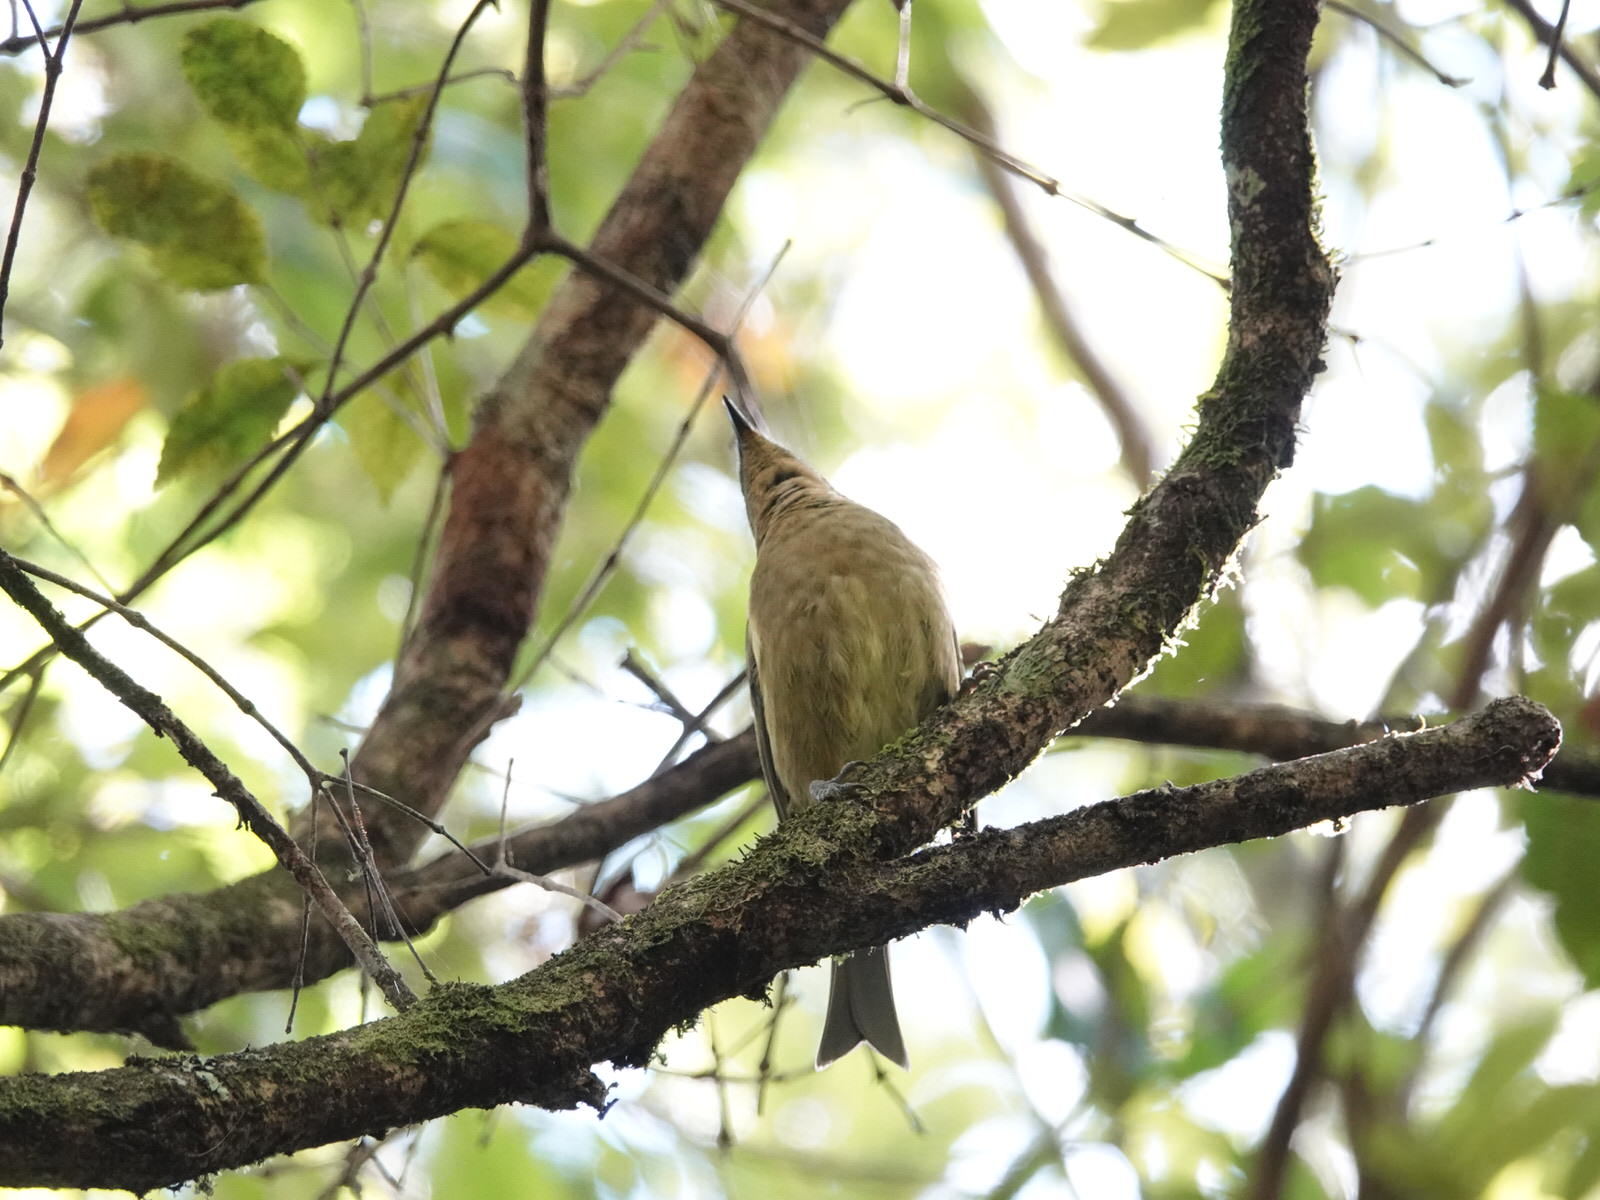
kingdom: Animalia
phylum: Chordata
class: Aves
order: Passeriformes
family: Meliphagidae
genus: Anthornis
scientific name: Anthornis melanura
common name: New zealand bellbird
